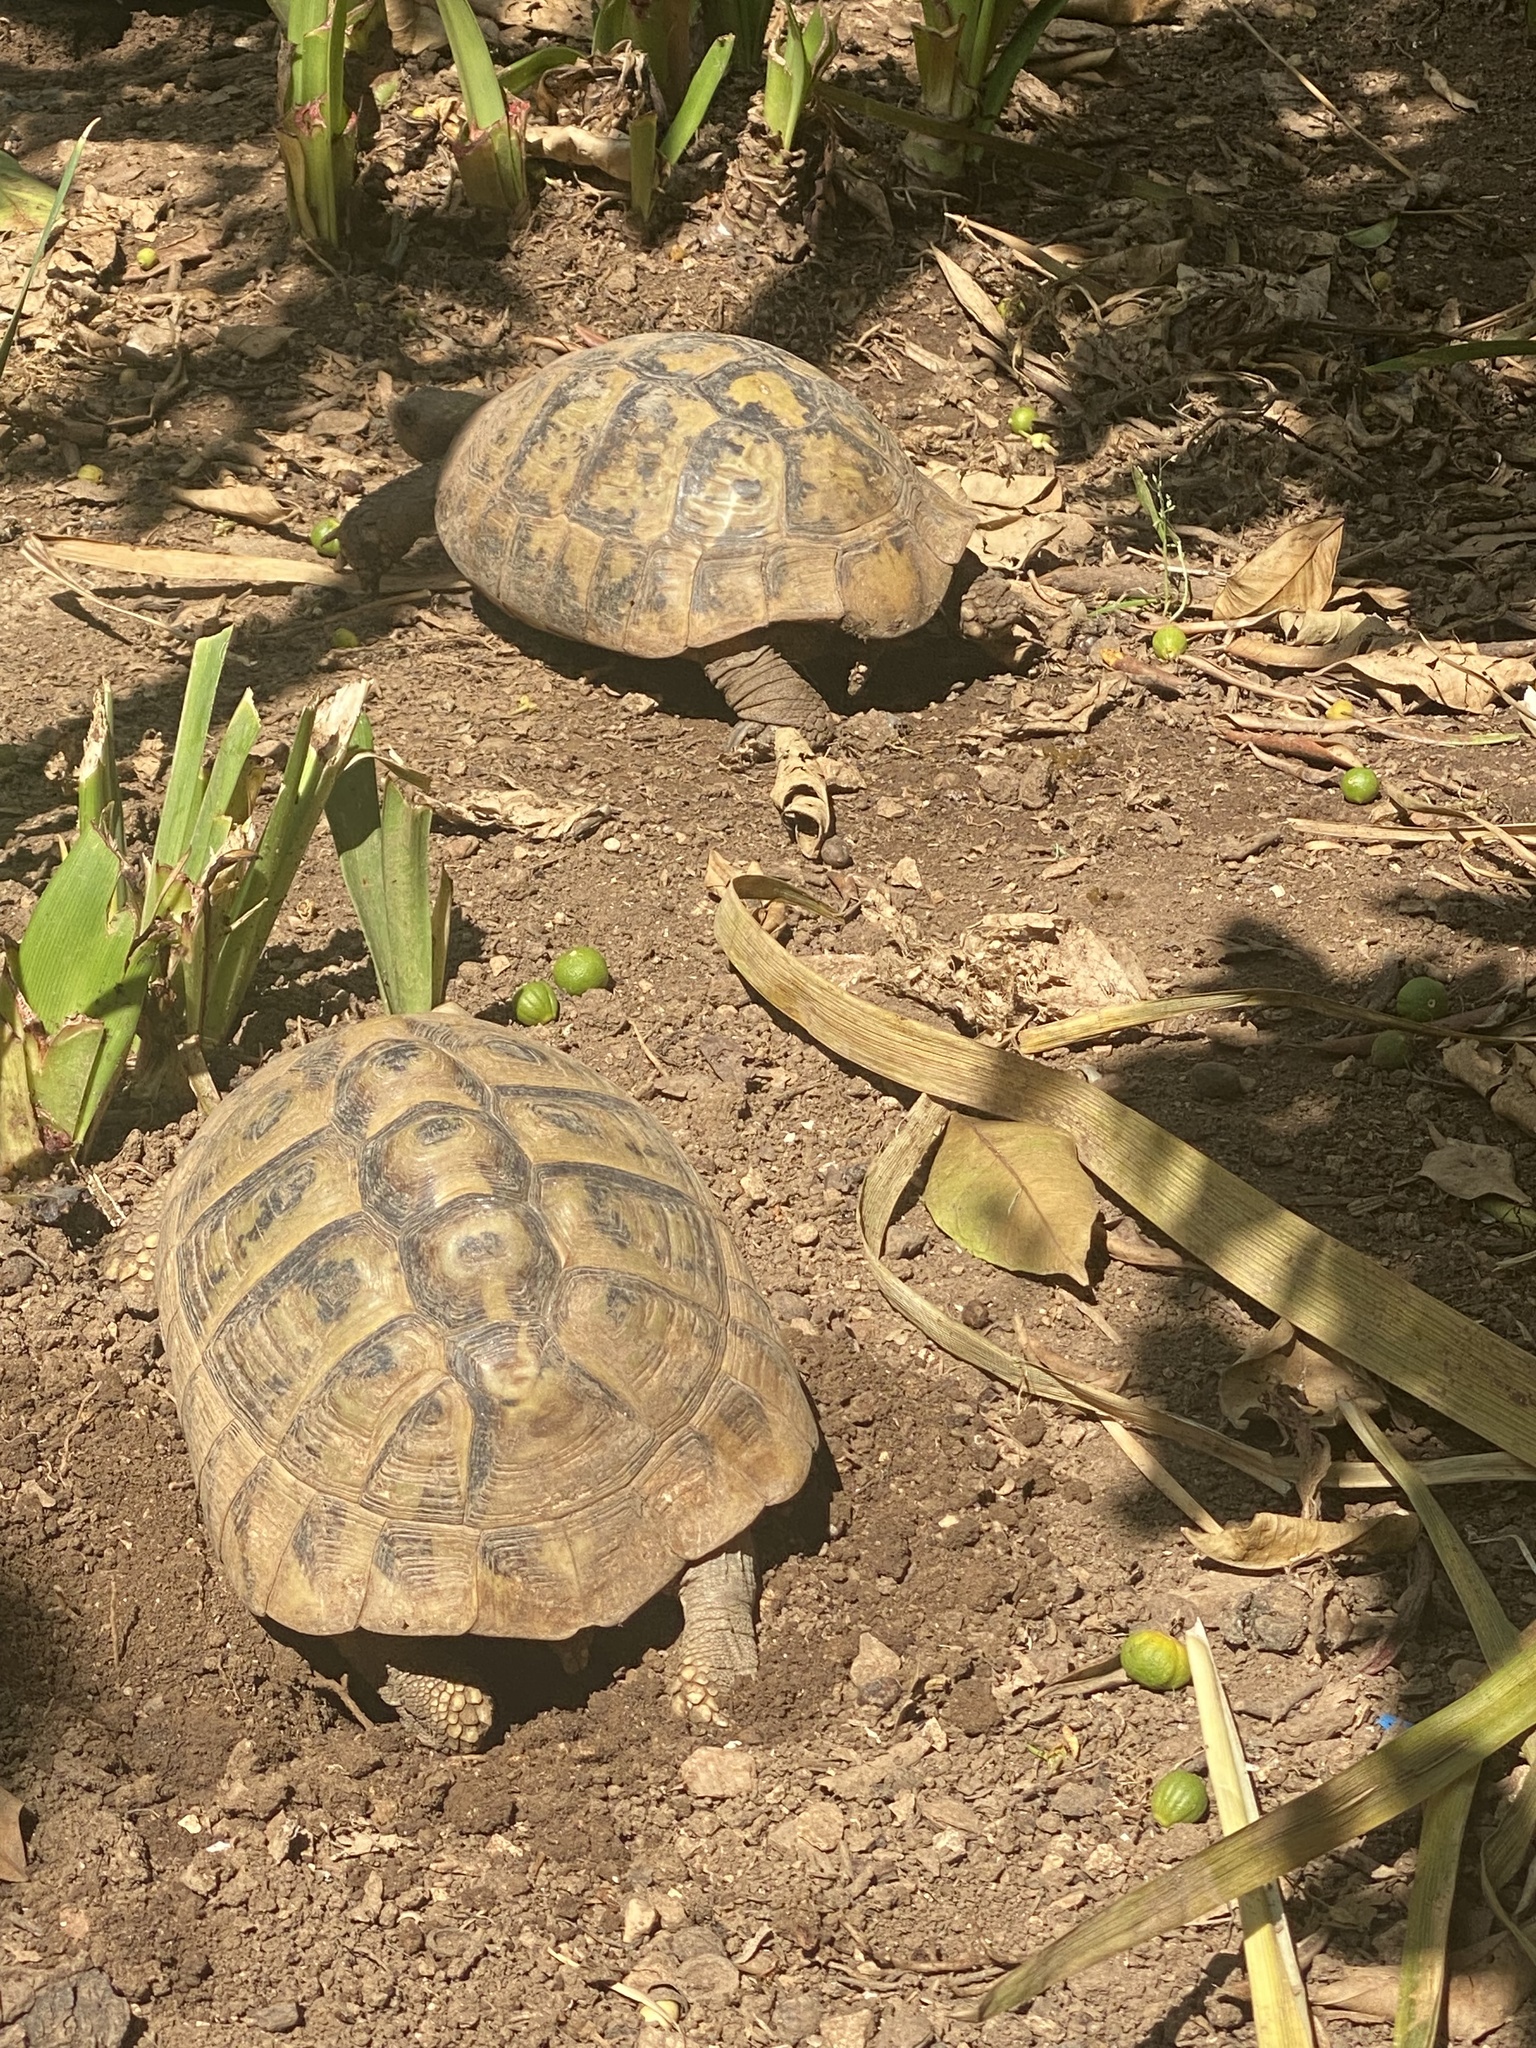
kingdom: Animalia
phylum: Chordata
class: Testudines
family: Testudinidae
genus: Testudo
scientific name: Testudo hermanni
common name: Hermann's tortoise
